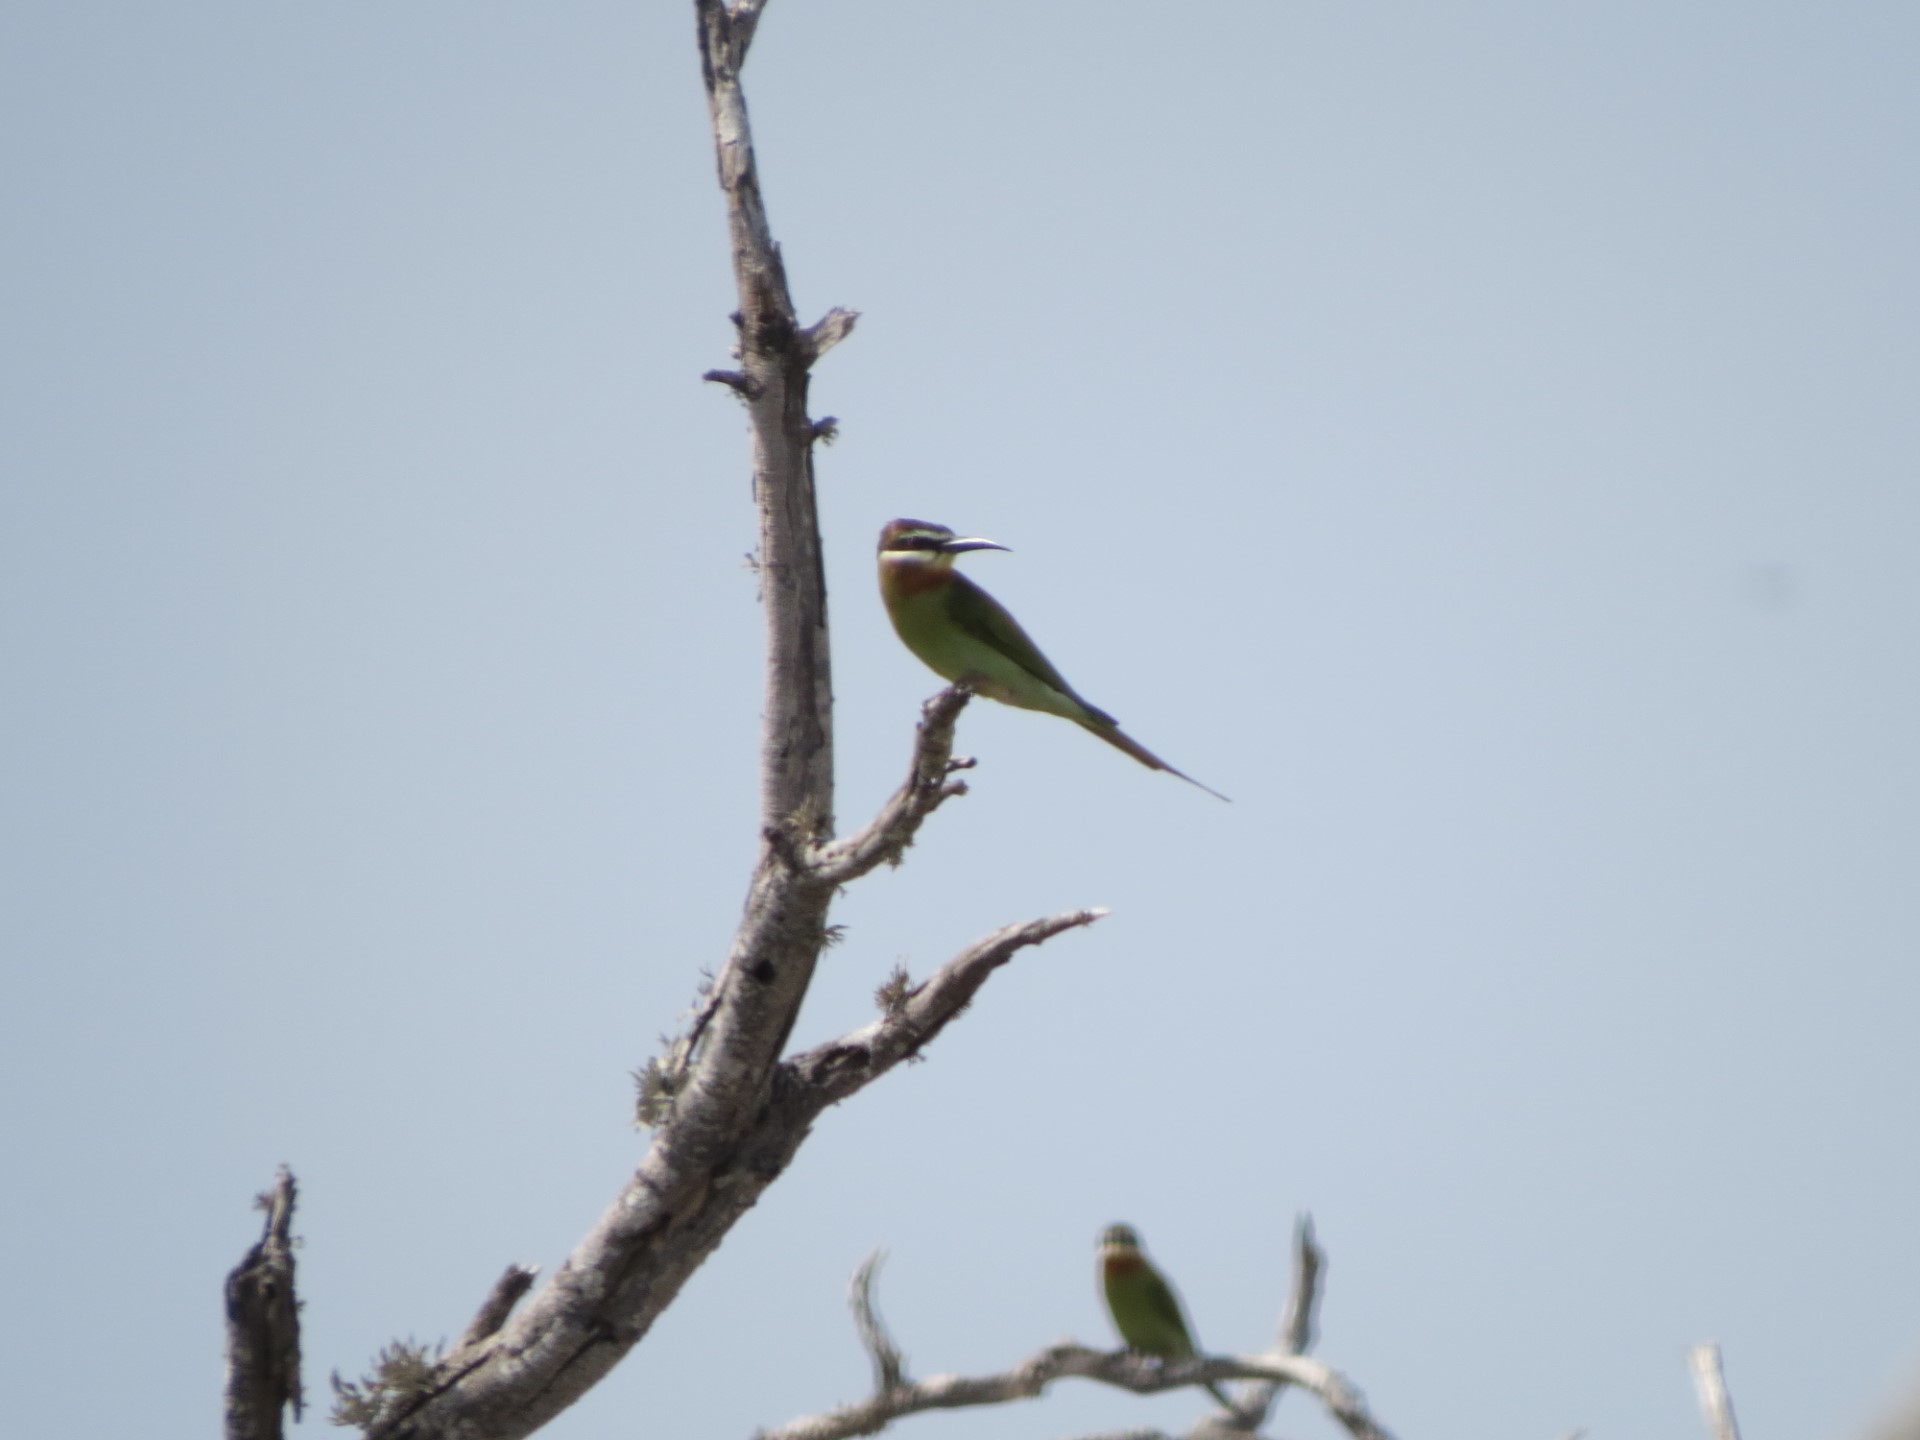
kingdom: Animalia
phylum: Chordata
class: Aves
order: Coraciiformes
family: Meropidae
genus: Merops
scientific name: Merops superciliosus
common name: Olive bee-eater
